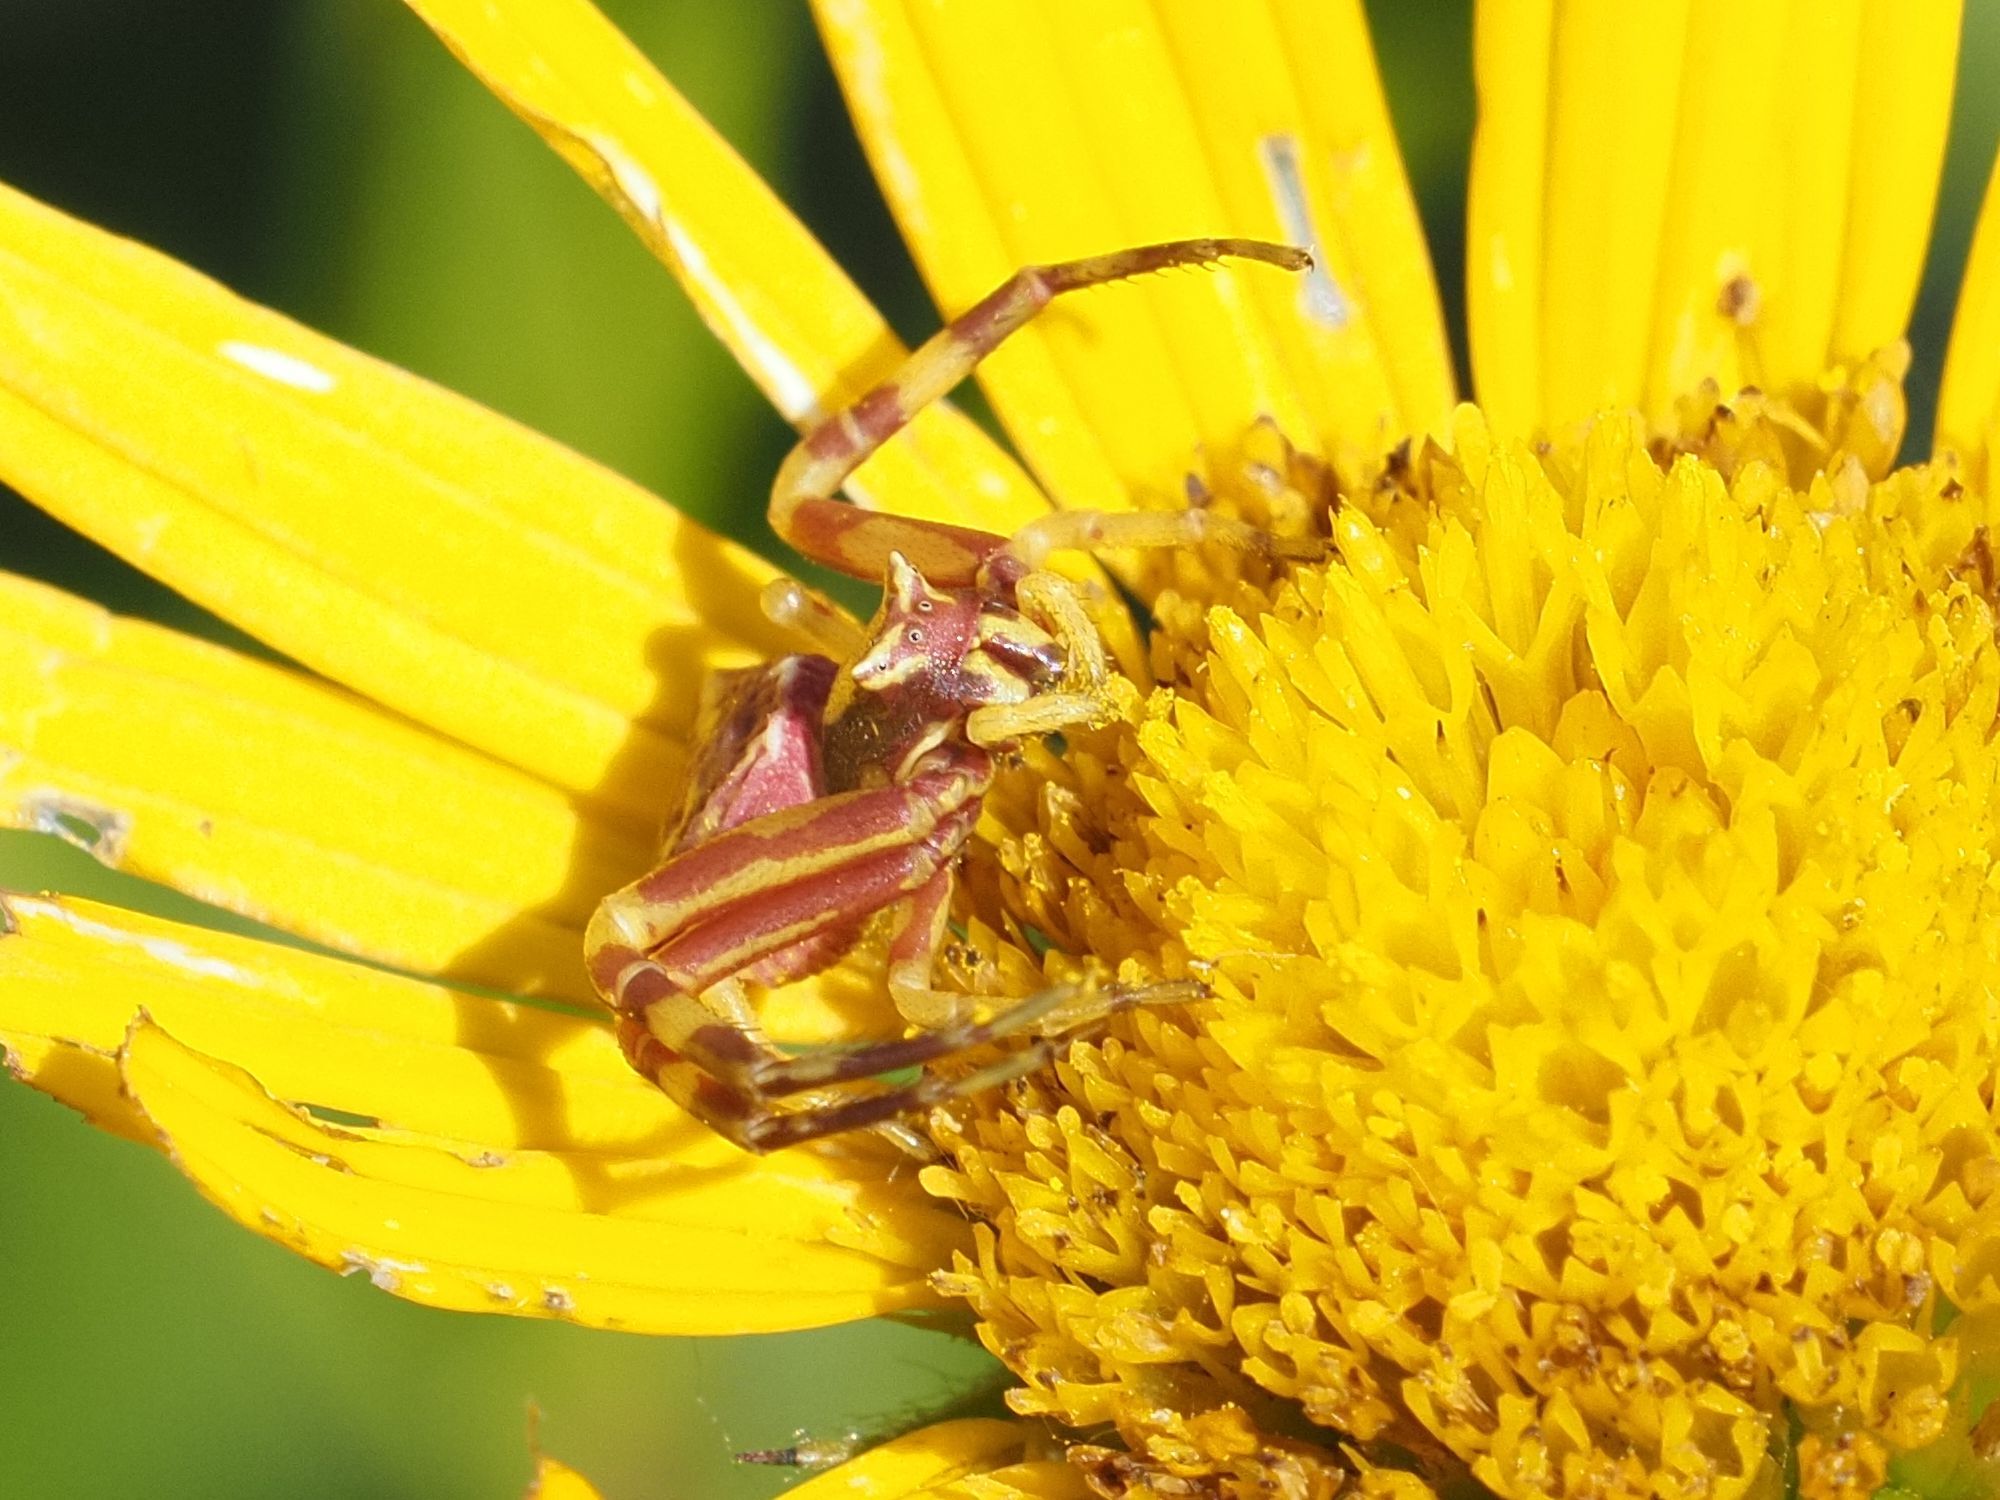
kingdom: Animalia
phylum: Arthropoda
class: Arachnida
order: Araneae
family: Thomisidae
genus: Thomisus
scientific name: Thomisus onustus
